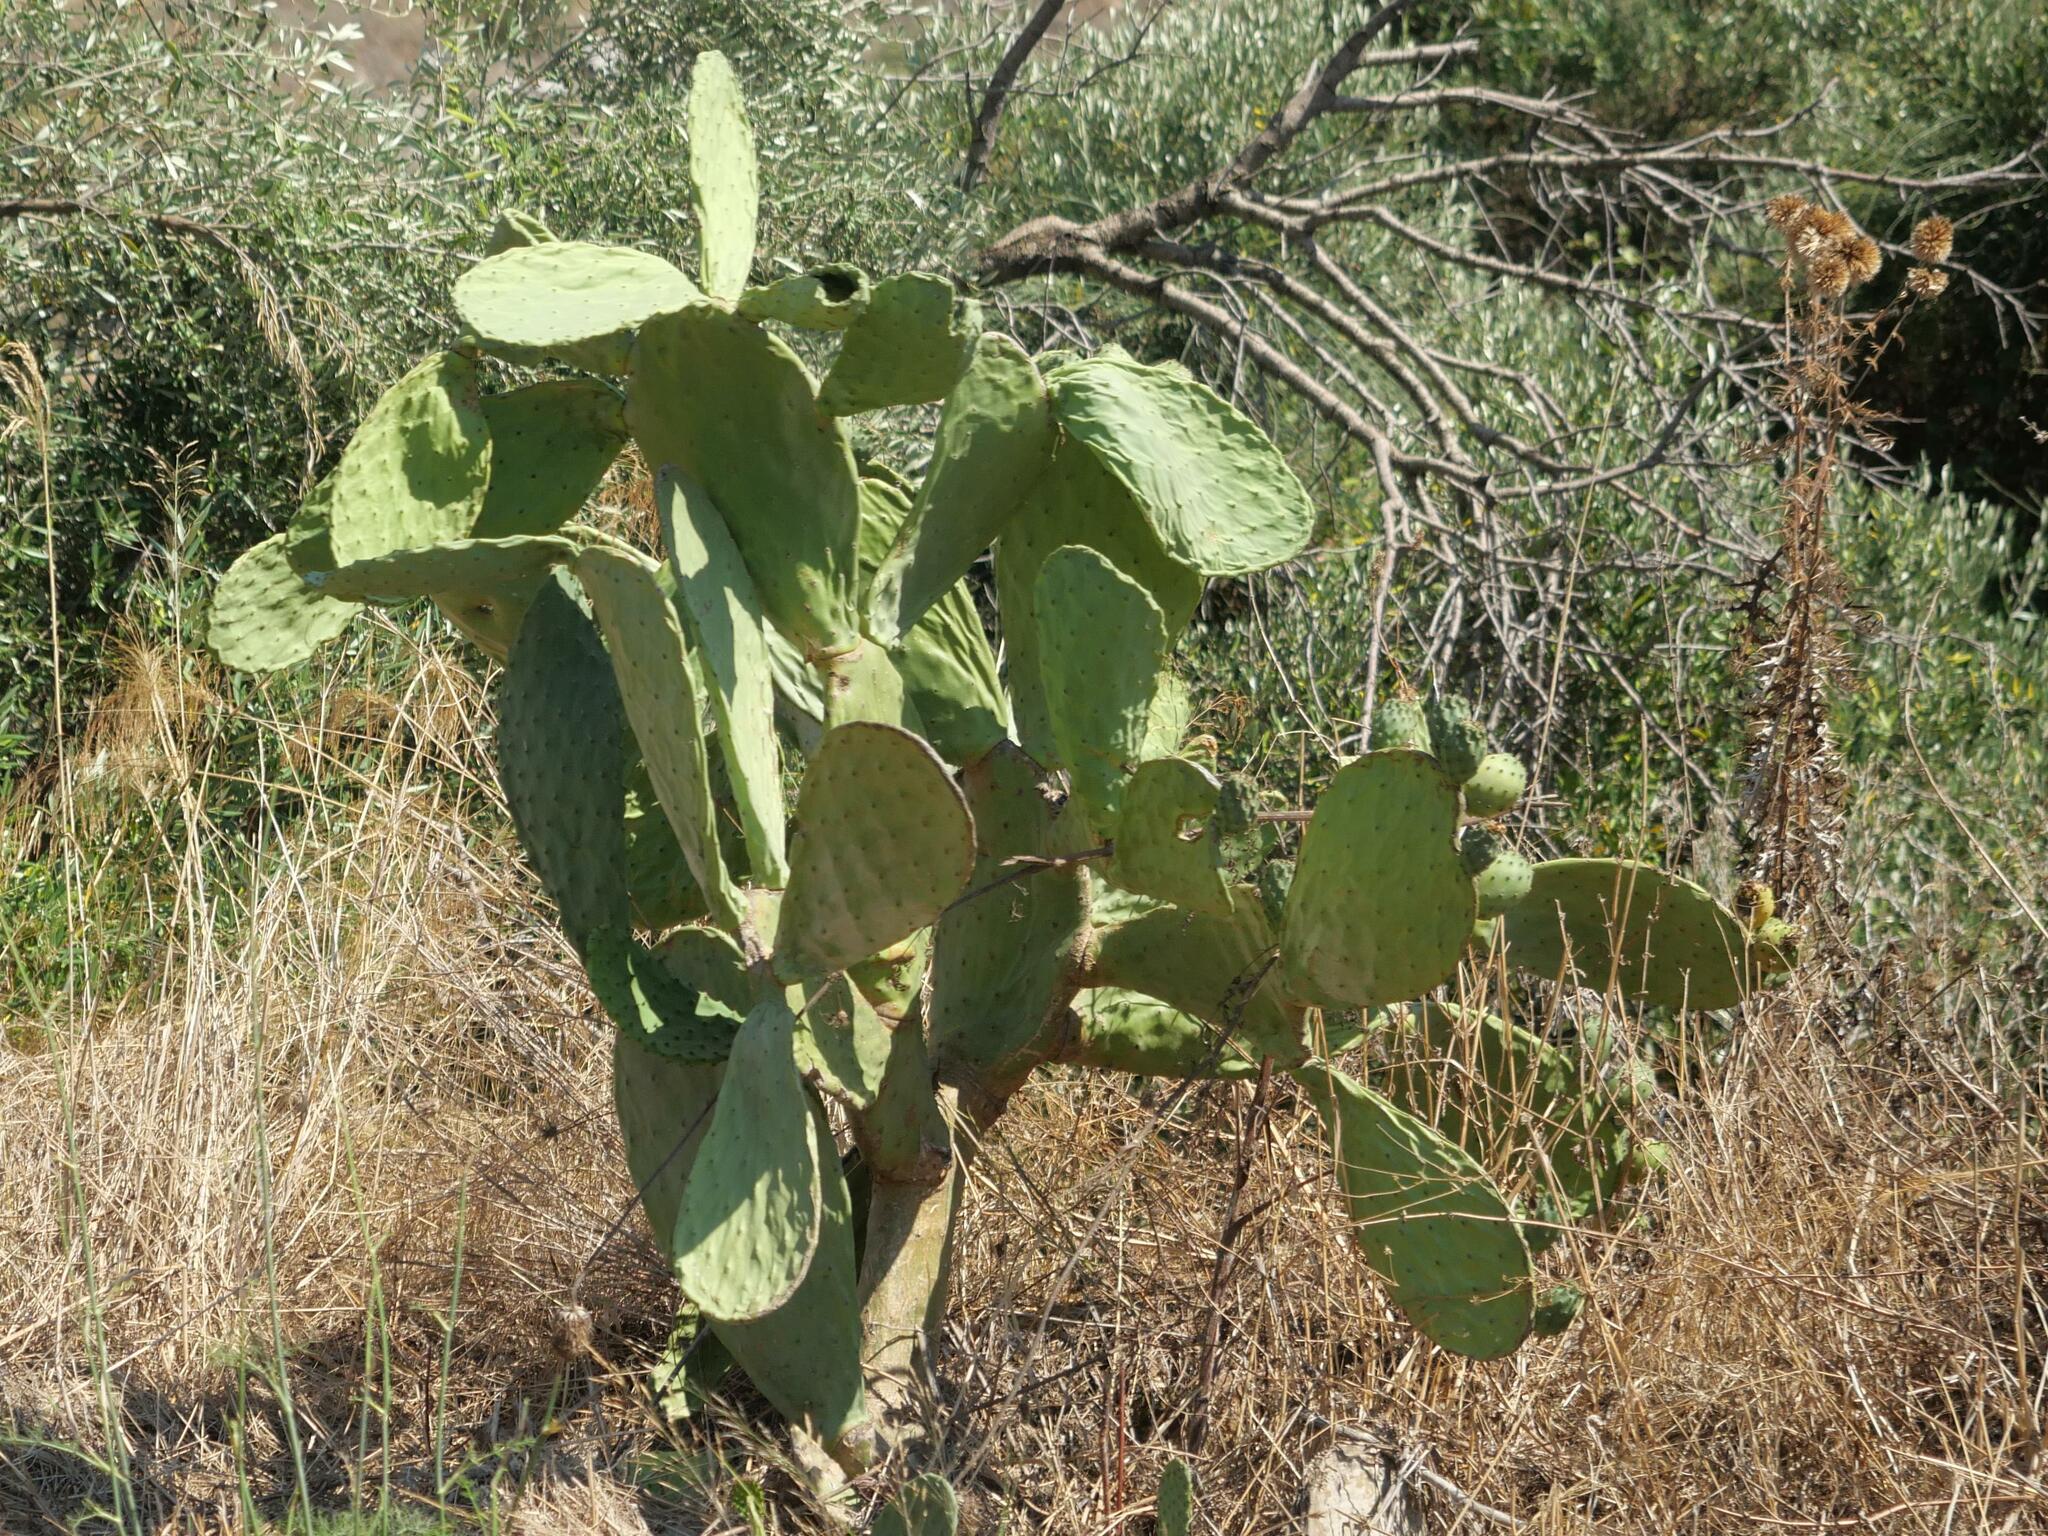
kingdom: Plantae
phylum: Tracheophyta
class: Magnoliopsida
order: Caryophyllales
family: Cactaceae
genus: Opuntia
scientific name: Opuntia ficus-indica
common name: Barbary fig
